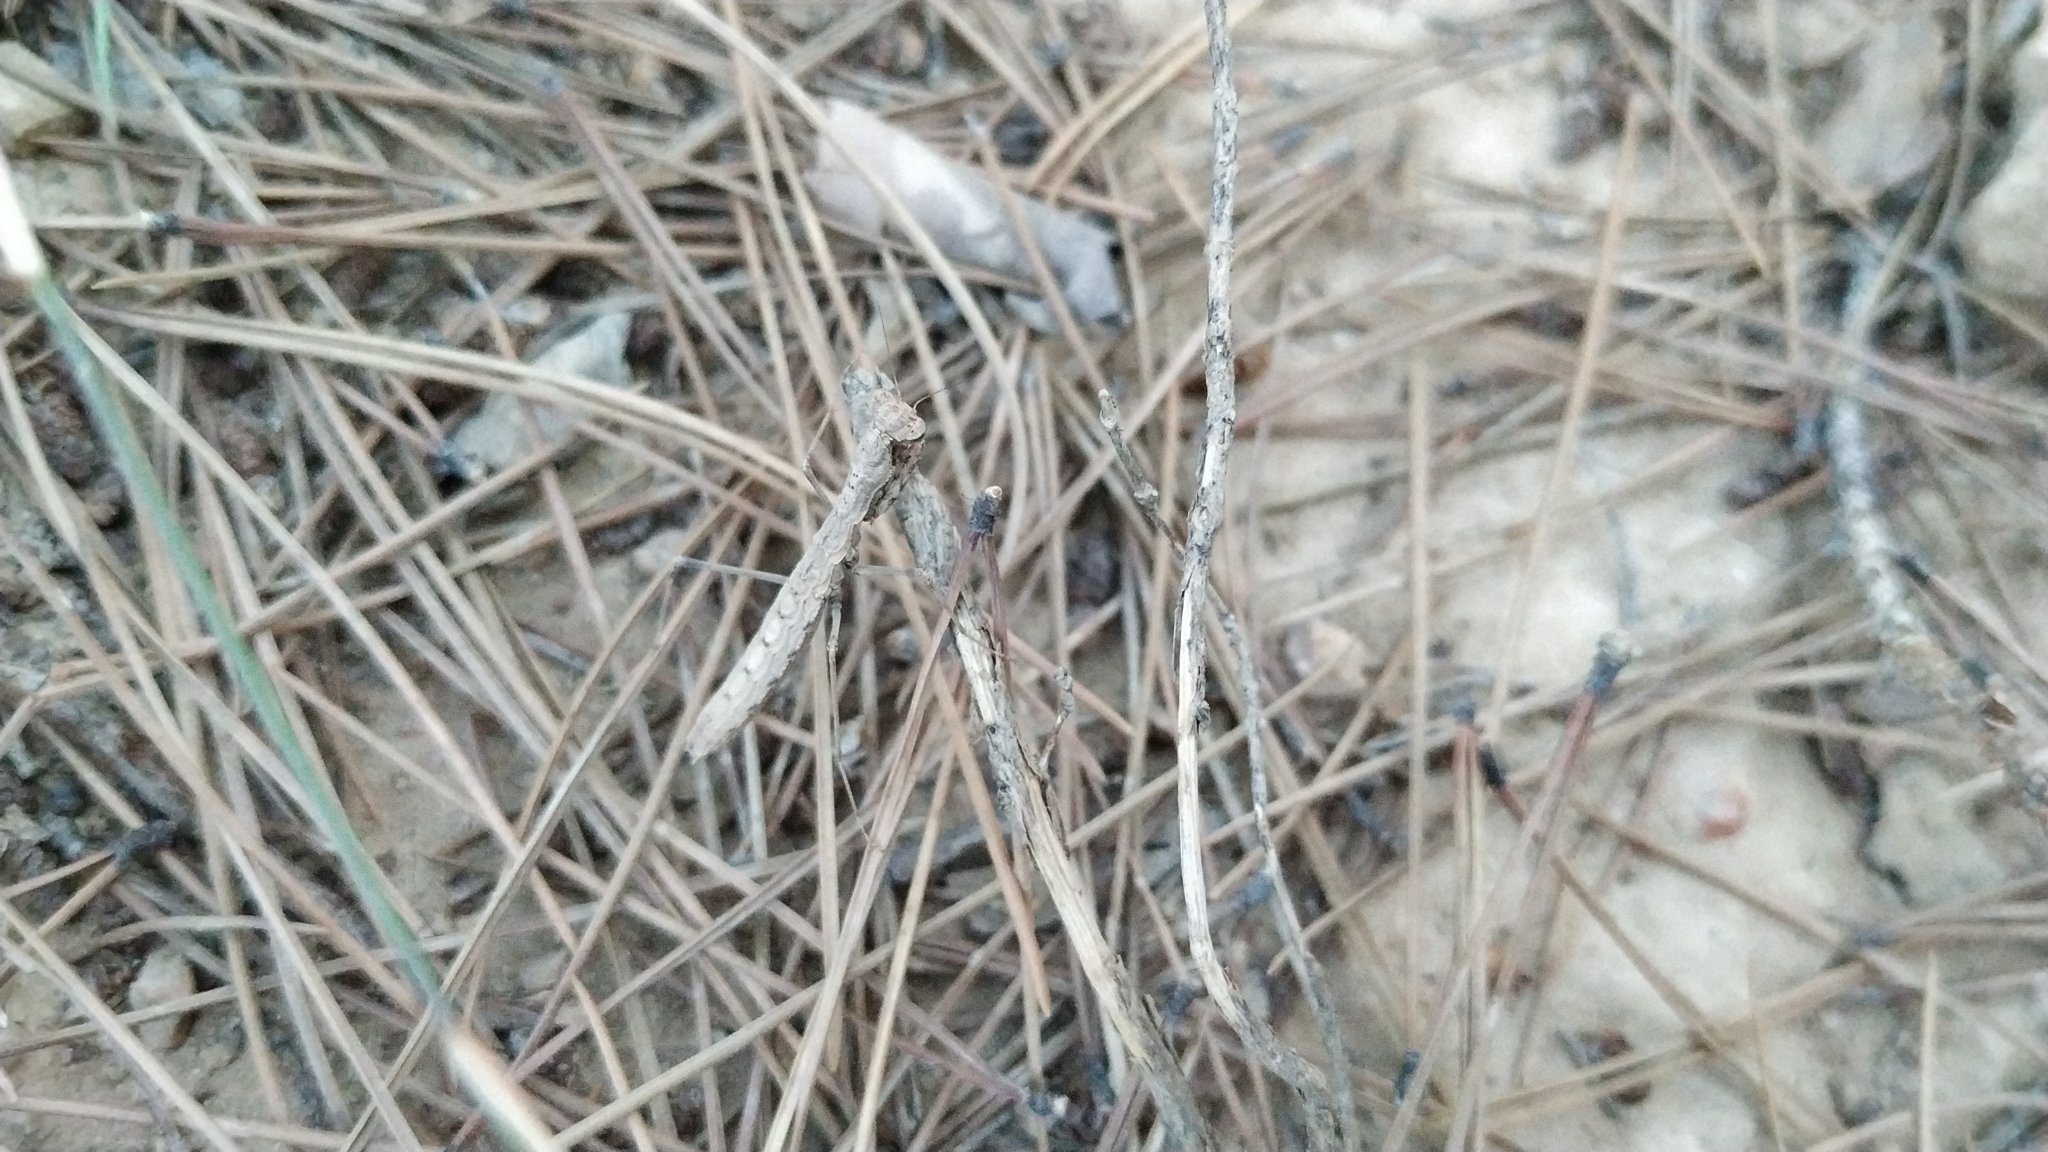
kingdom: Animalia
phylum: Arthropoda
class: Insecta
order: Mantodea
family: Rivetinidae
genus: Geomantis
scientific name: Geomantis larvoides
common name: Wingless ground mantis
